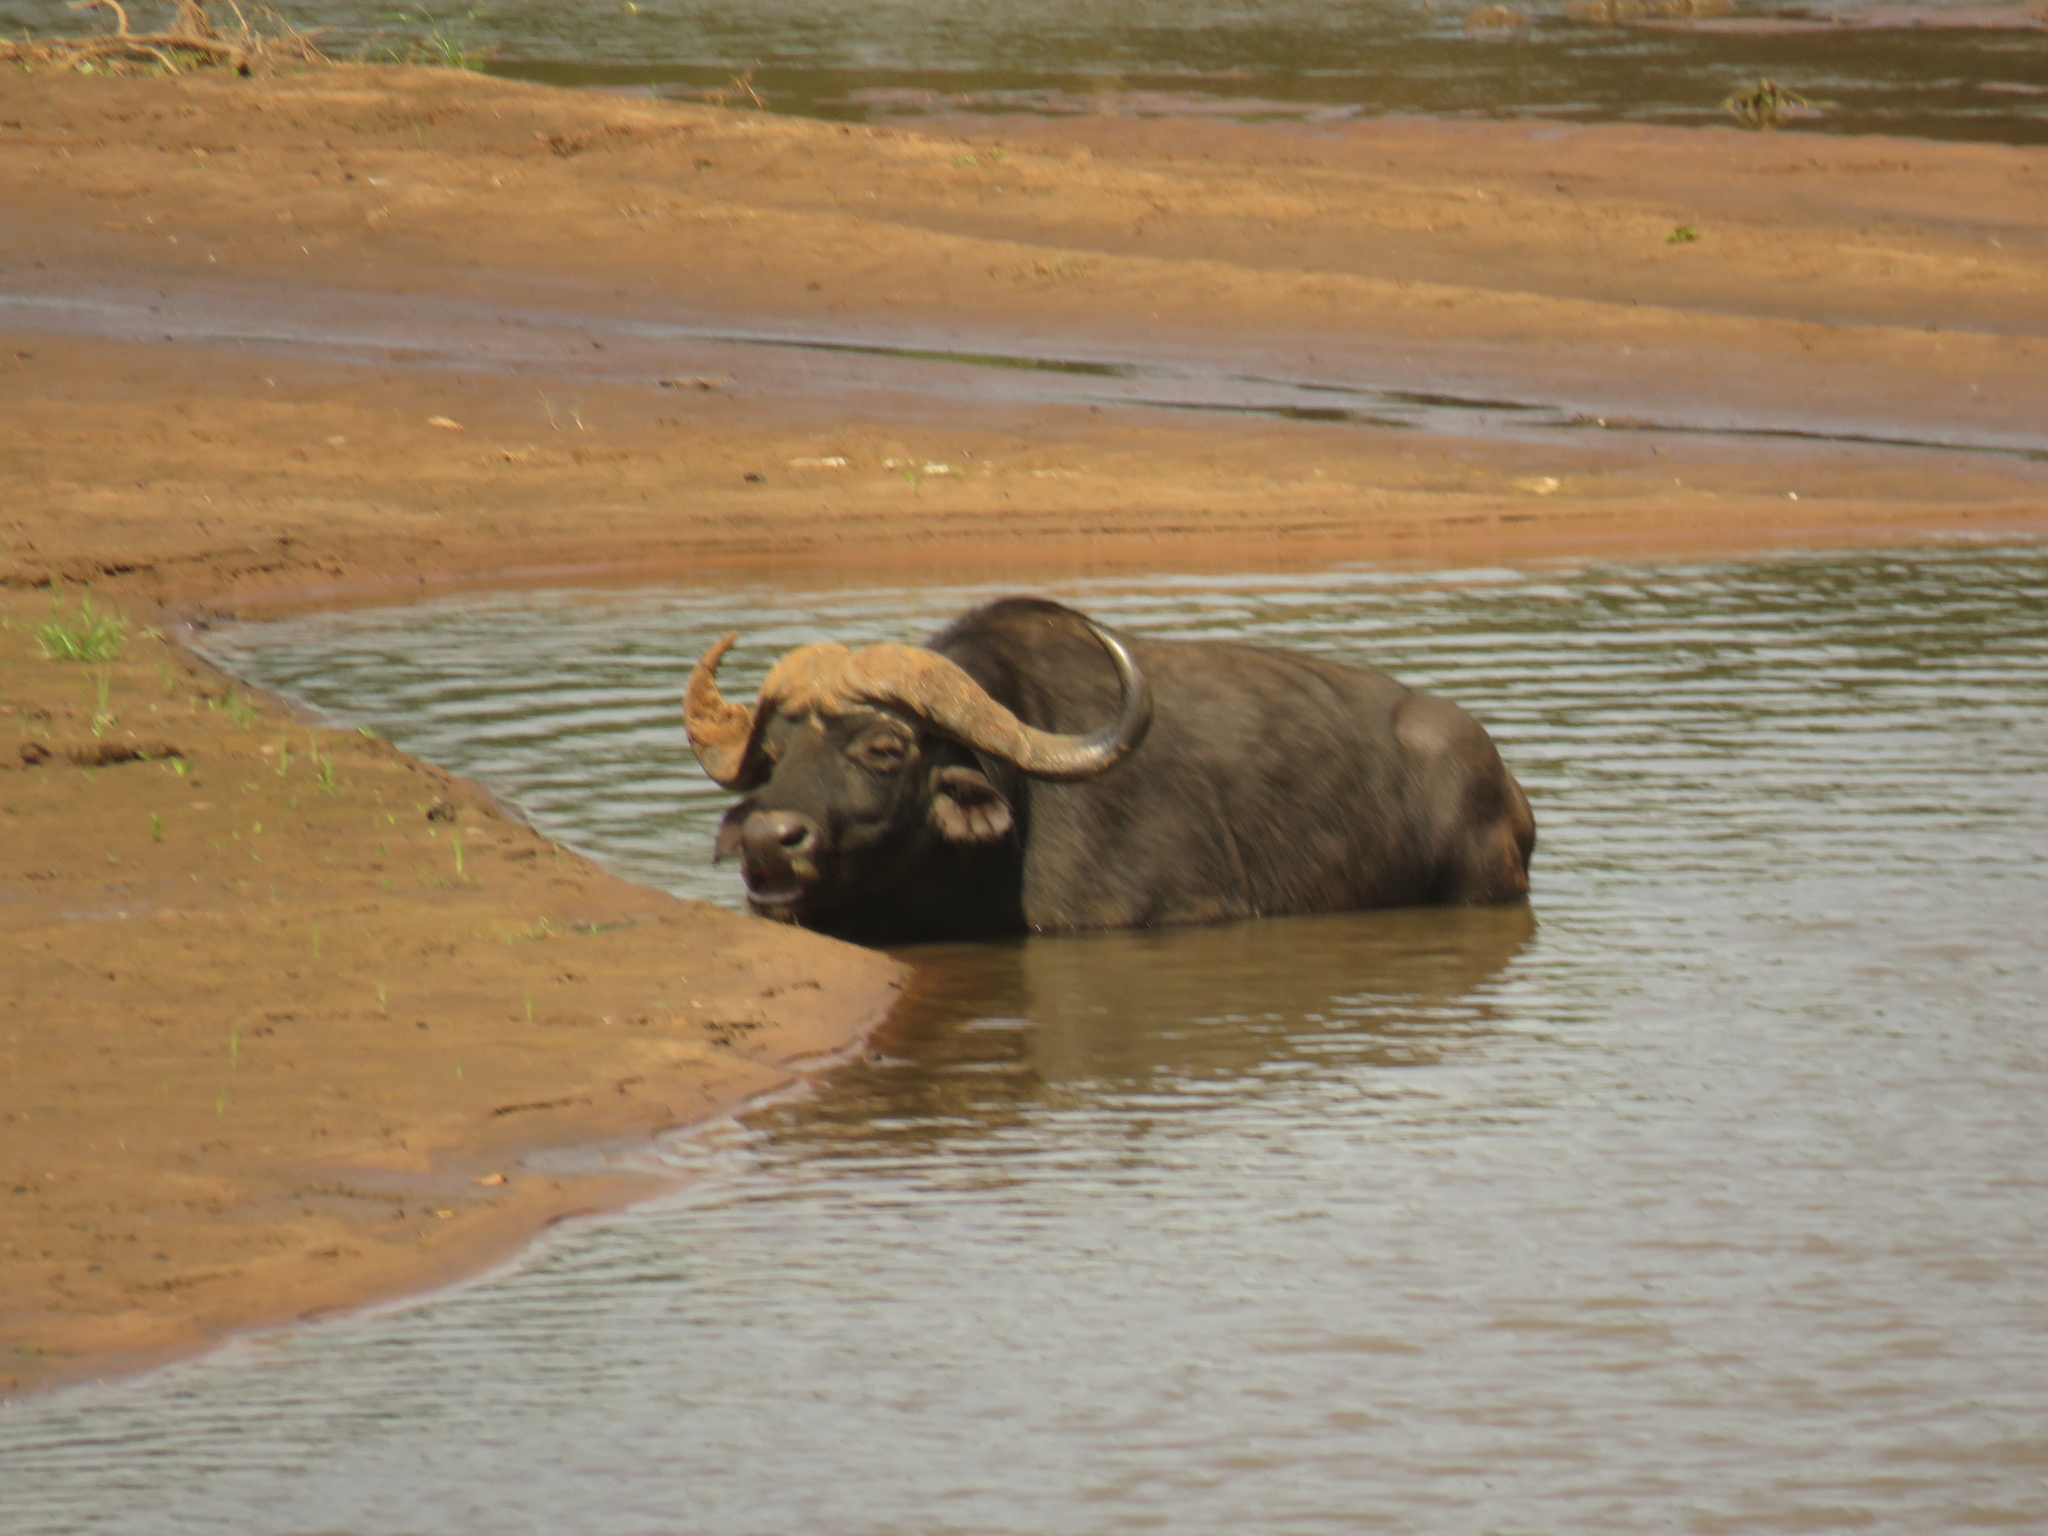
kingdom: Animalia
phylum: Chordata
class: Mammalia
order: Artiodactyla
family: Bovidae
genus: Syncerus
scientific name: Syncerus caffer
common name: African buffalo
